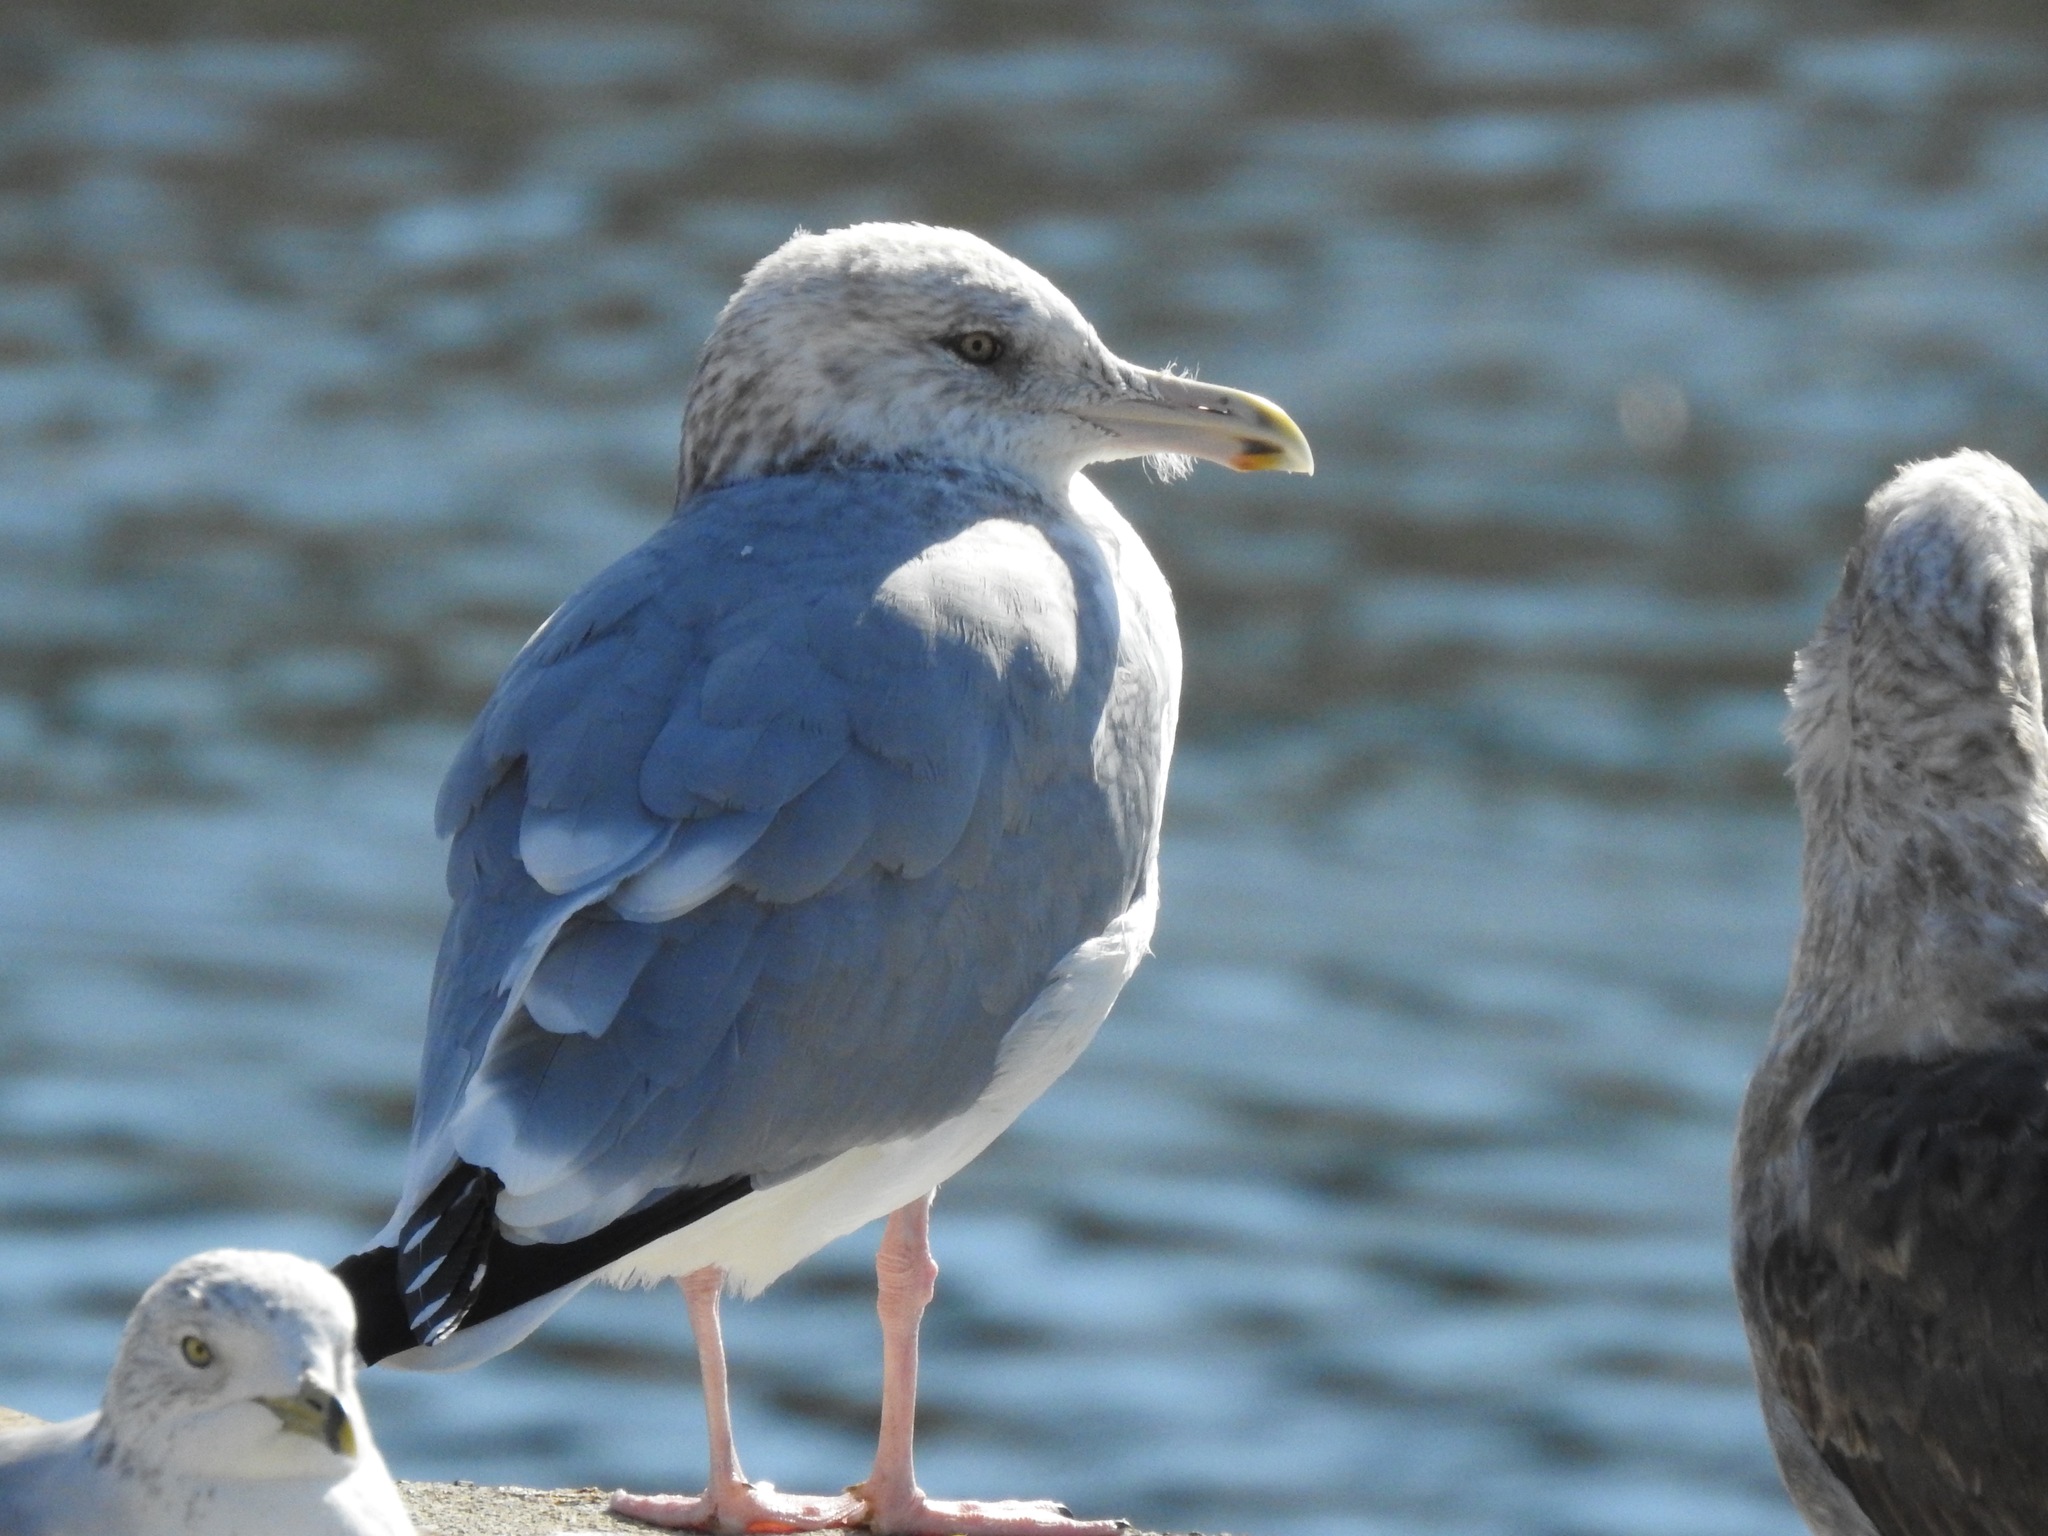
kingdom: Animalia
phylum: Chordata
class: Aves
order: Charadriiformes
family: Laridae
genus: Larus
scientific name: Larus argentatus
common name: Herring gull
